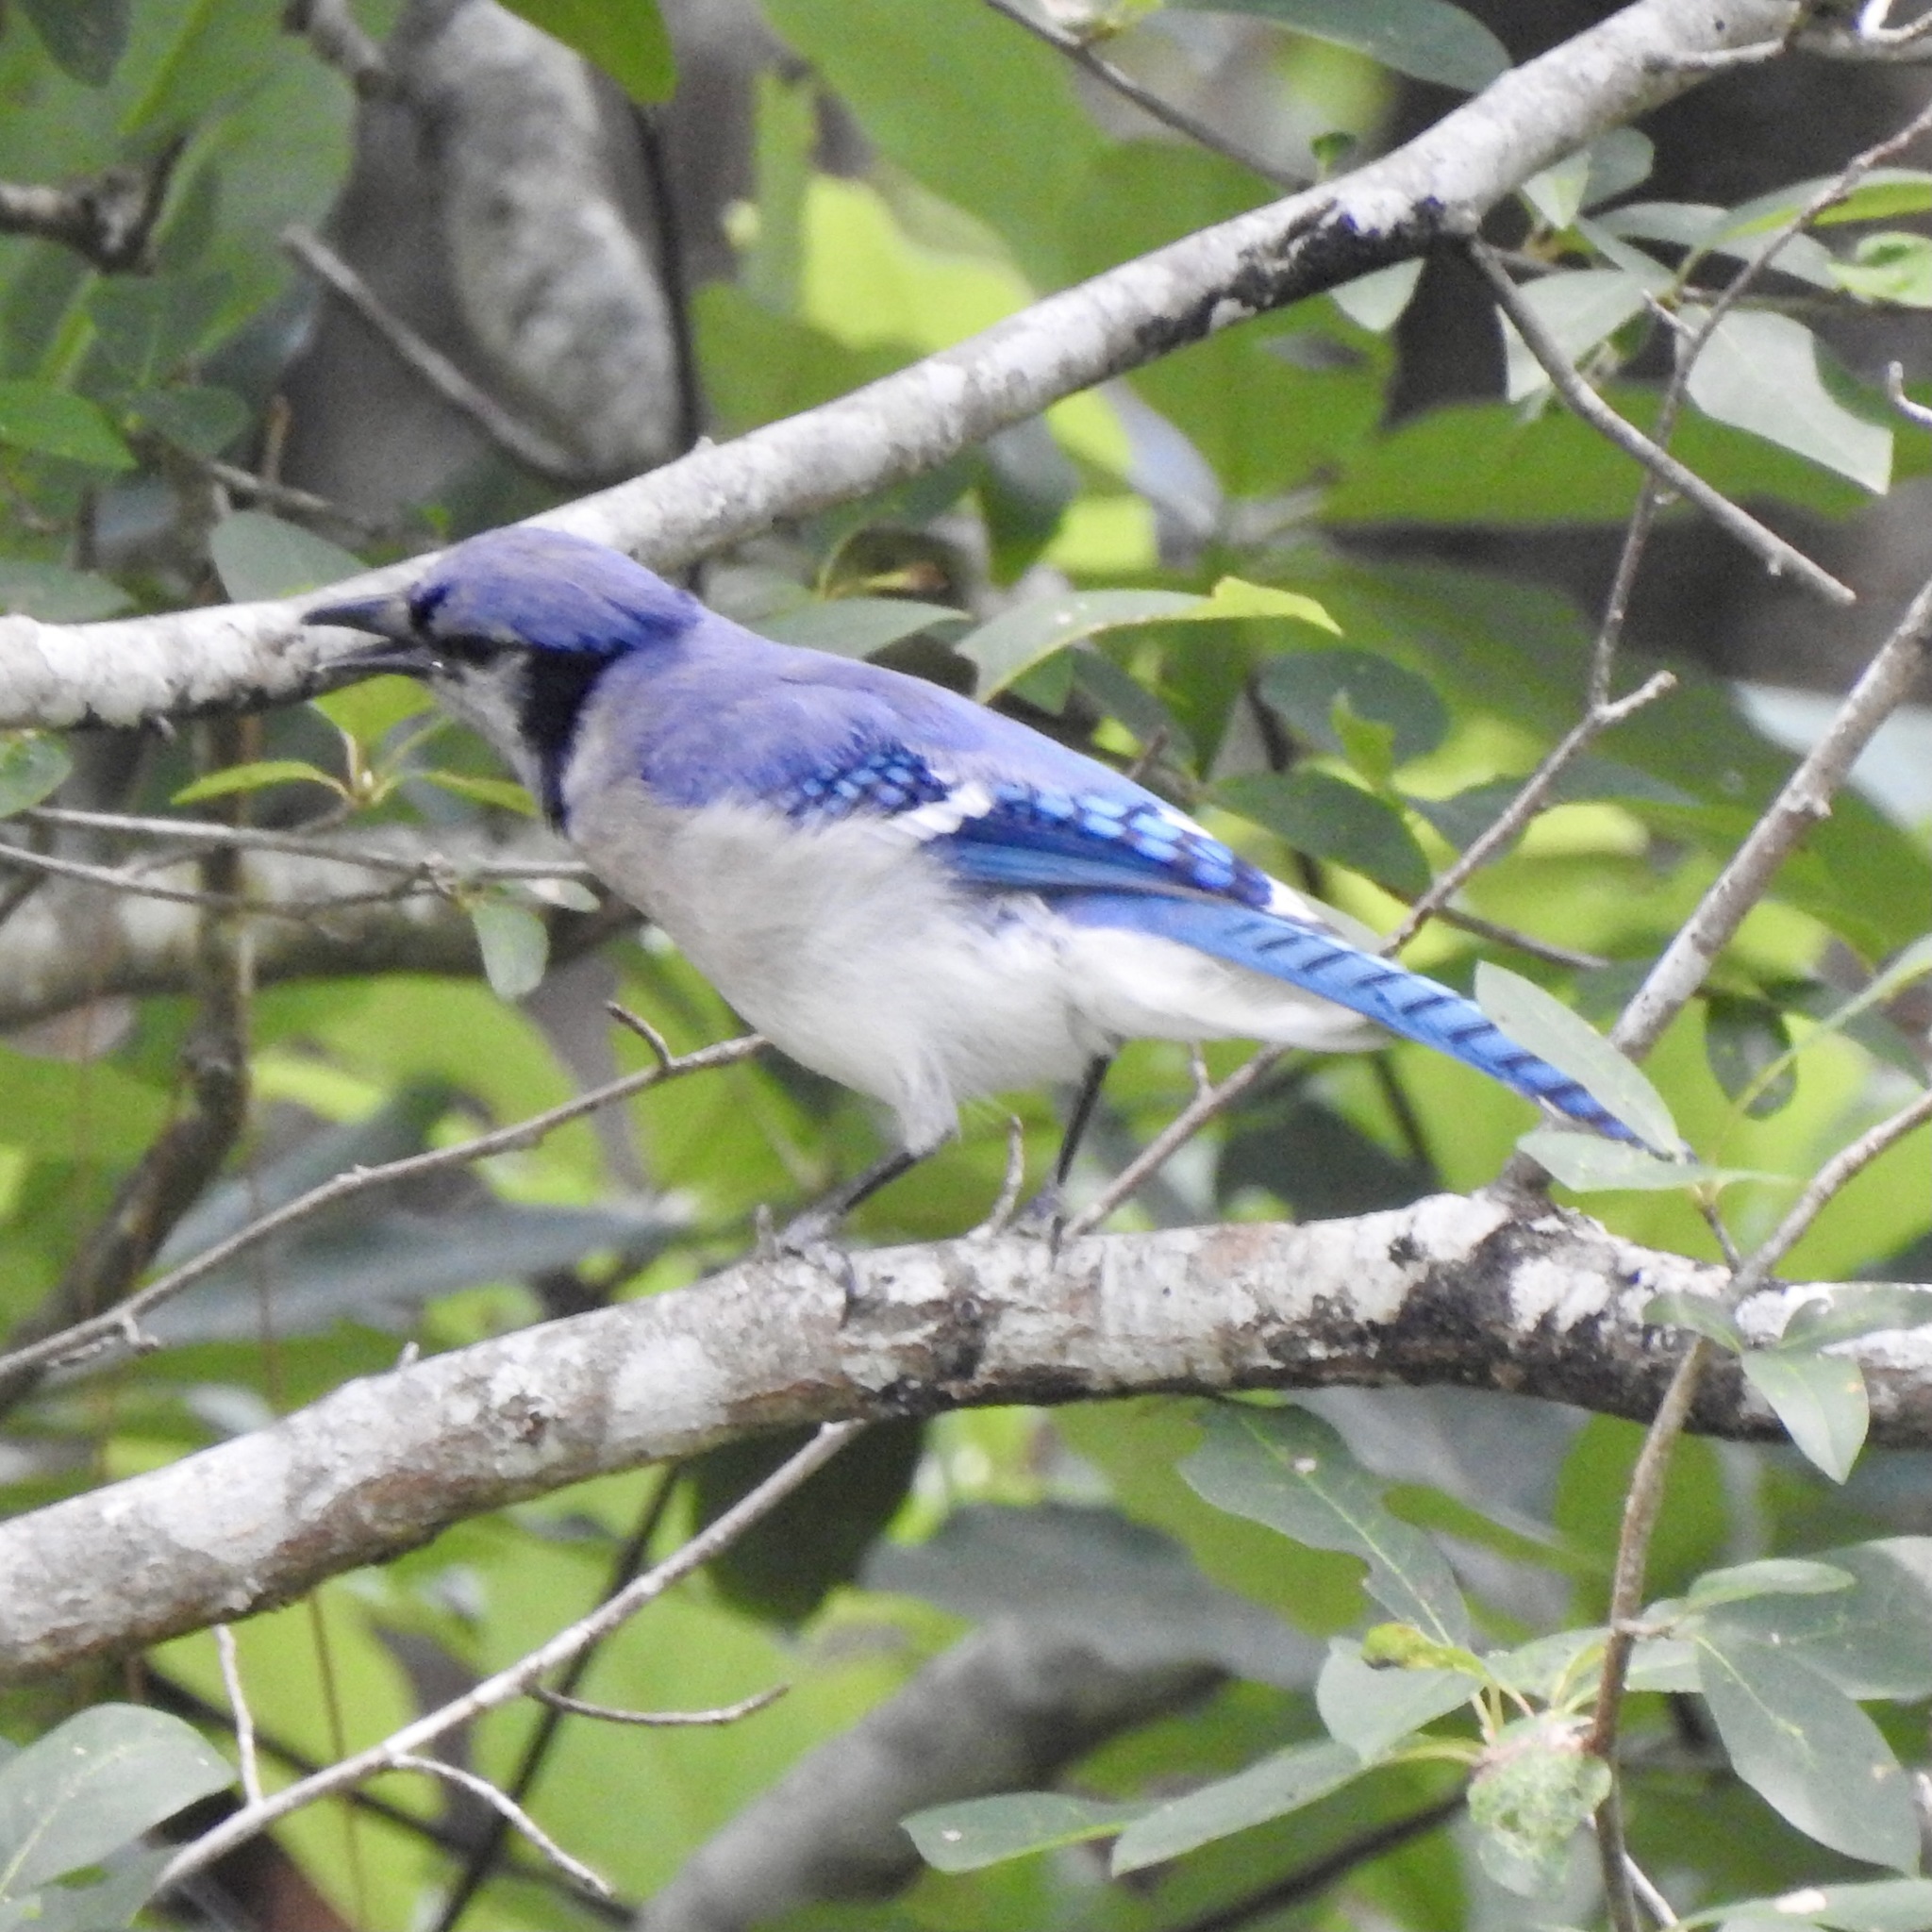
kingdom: Animalia
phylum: Chordata
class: Aves
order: Passeriformes
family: Corvidae
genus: Cyanocitta
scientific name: Cyanocitta cristata
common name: Blue jay
